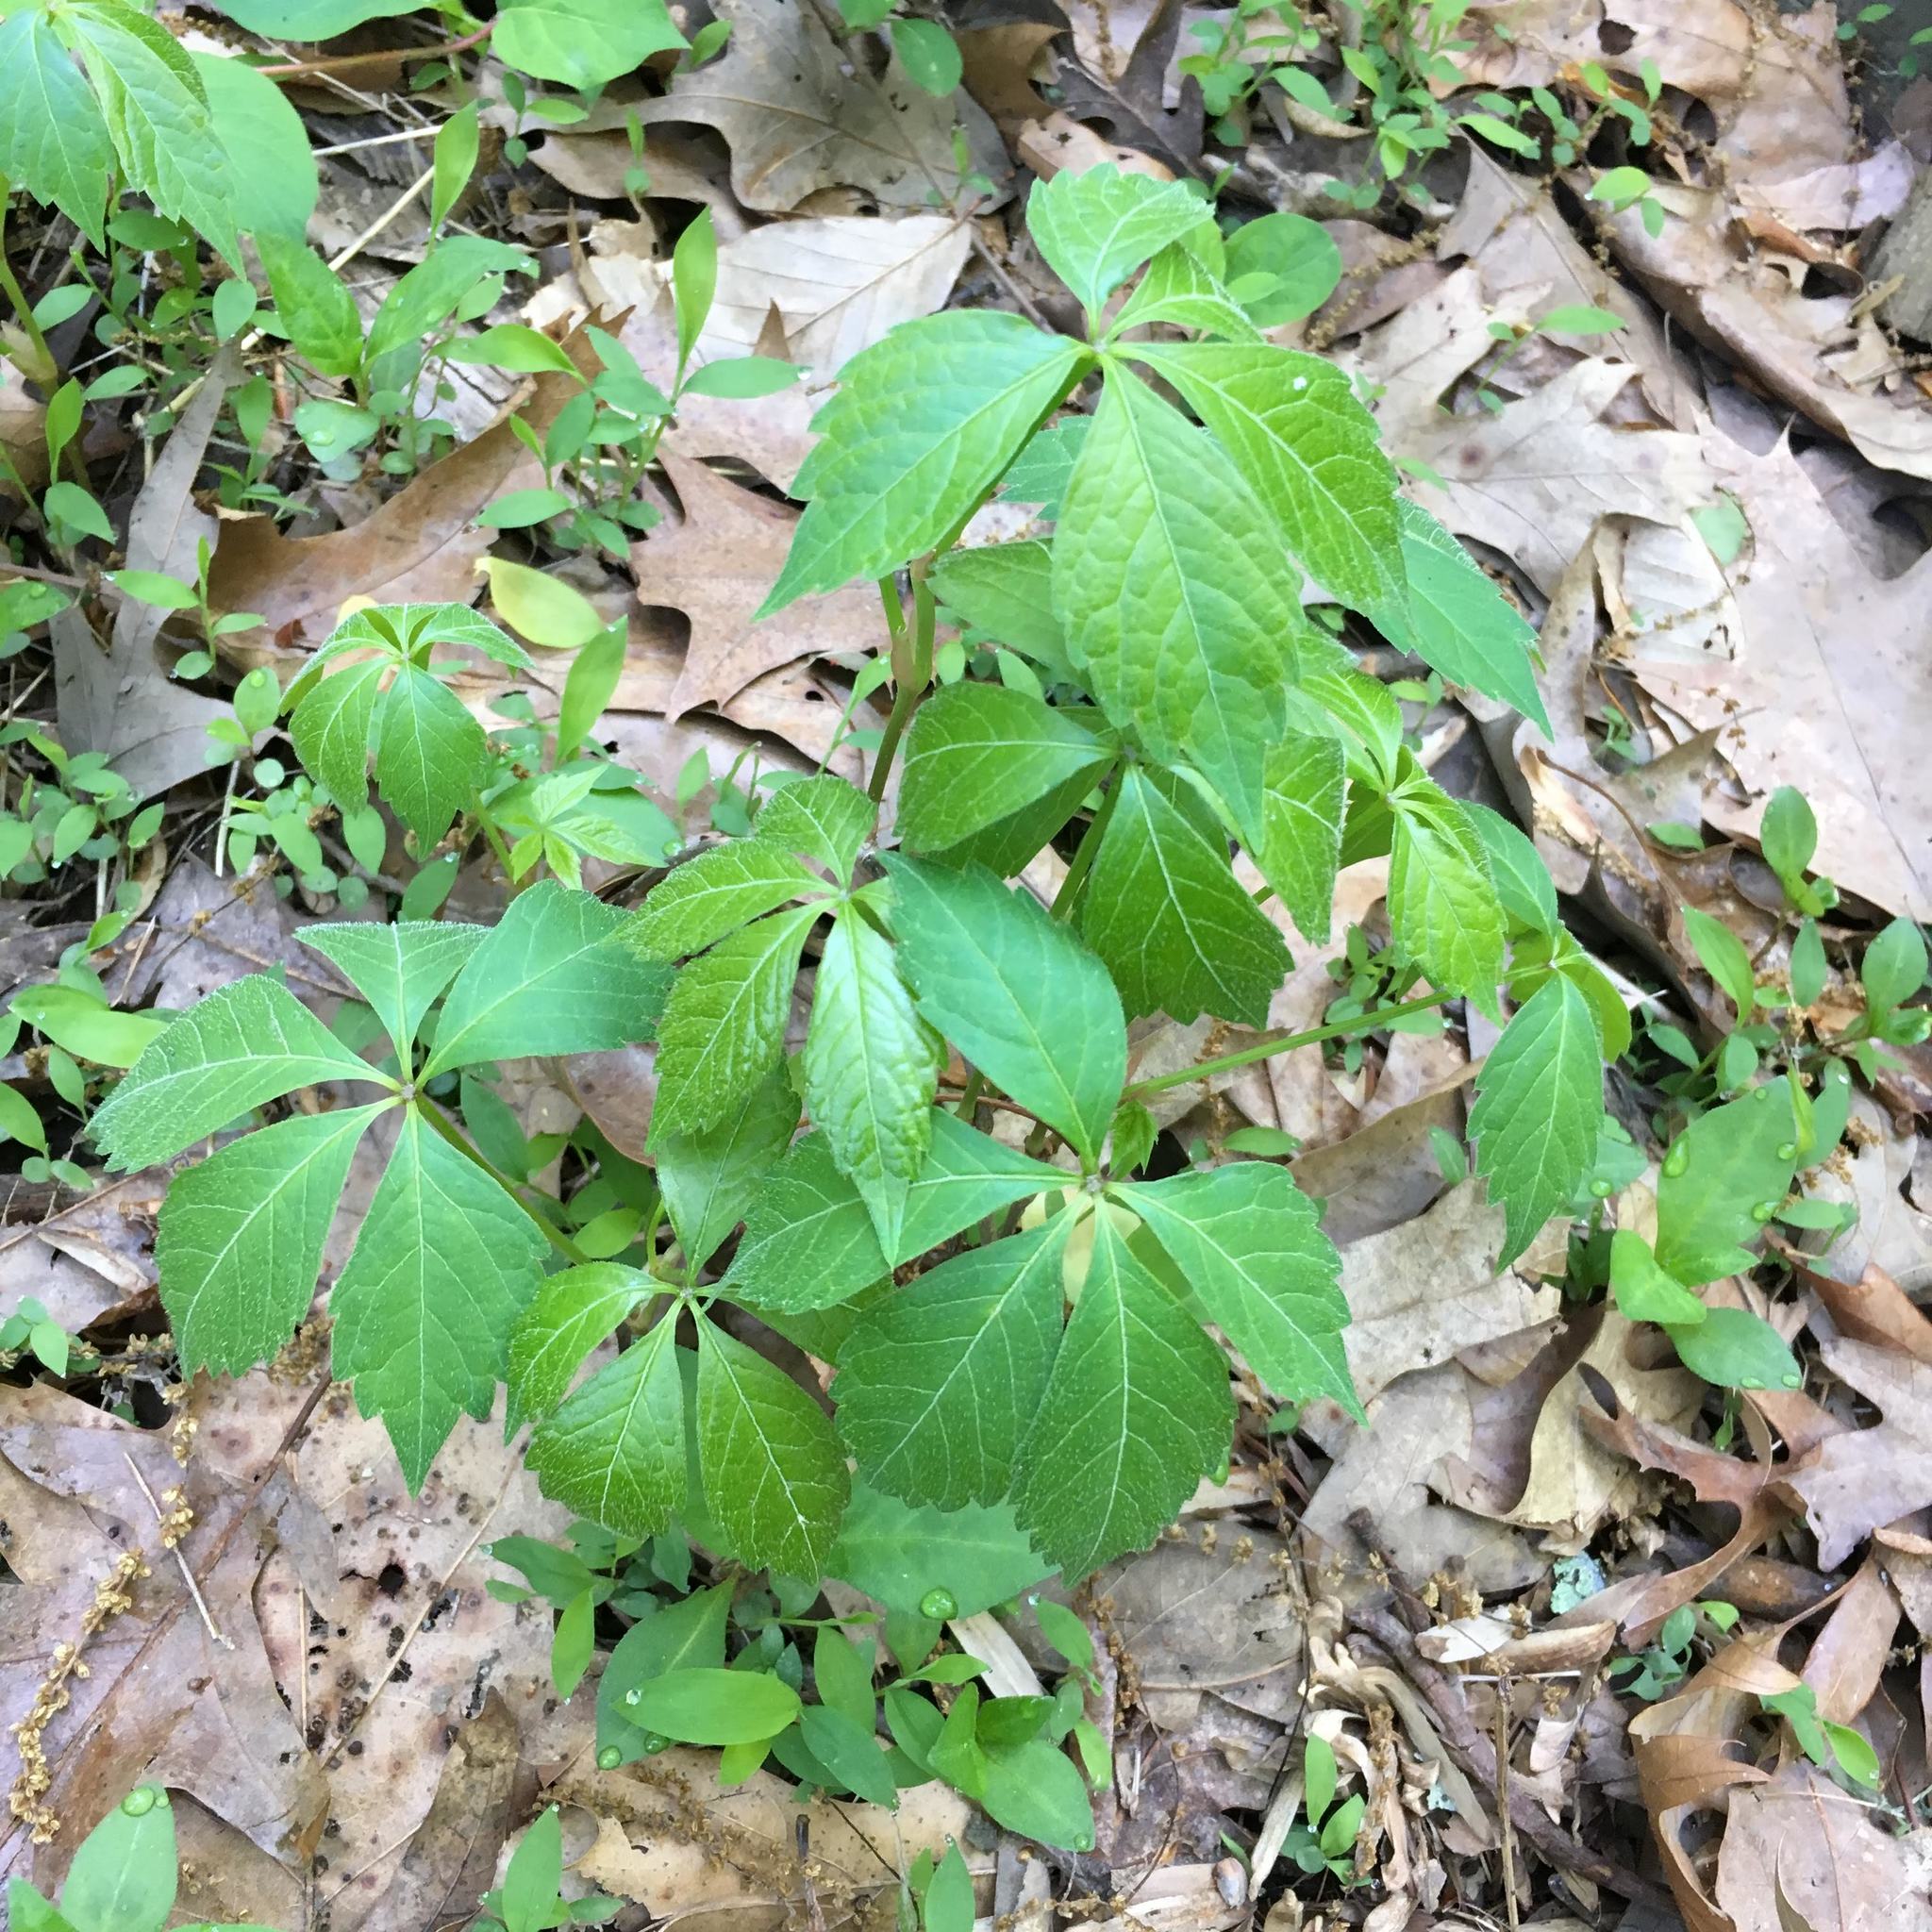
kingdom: Plantae
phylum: Tracheophyta
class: Magnoliopsida
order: Vitales
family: Vitaceae
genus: Parthenocissus
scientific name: Parthenocissus quinquefolia
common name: Virginia-creeper
